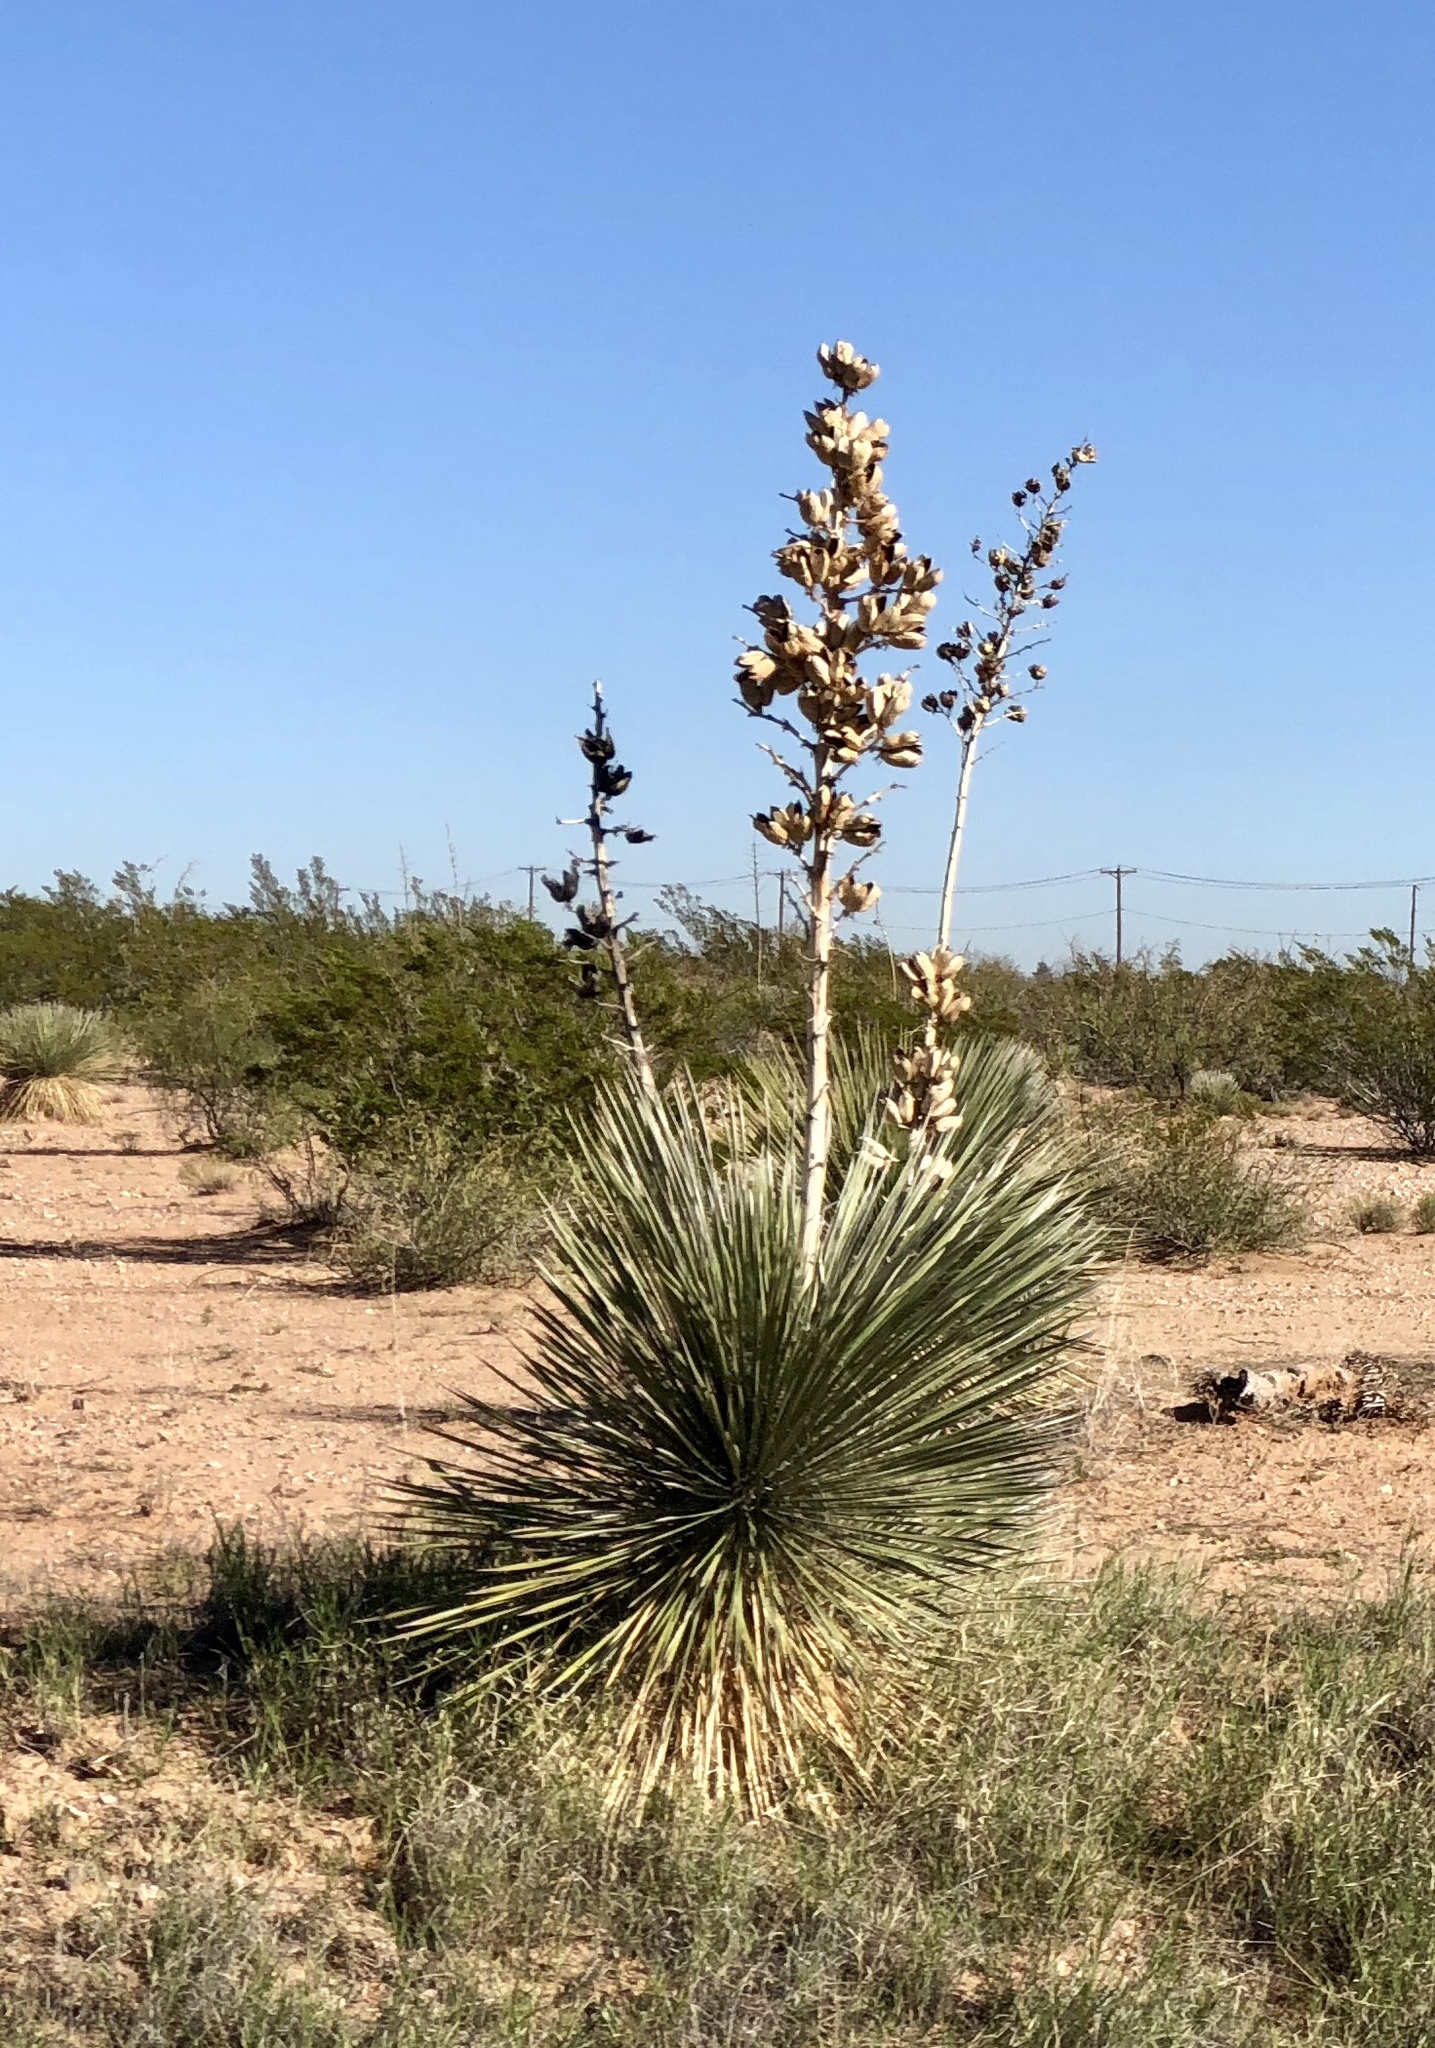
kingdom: Plantae
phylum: Tracheophyta
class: Liliopsida
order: Asparagales
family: Asparagaceae
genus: Yucca
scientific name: Yucca elata
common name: Palmella
